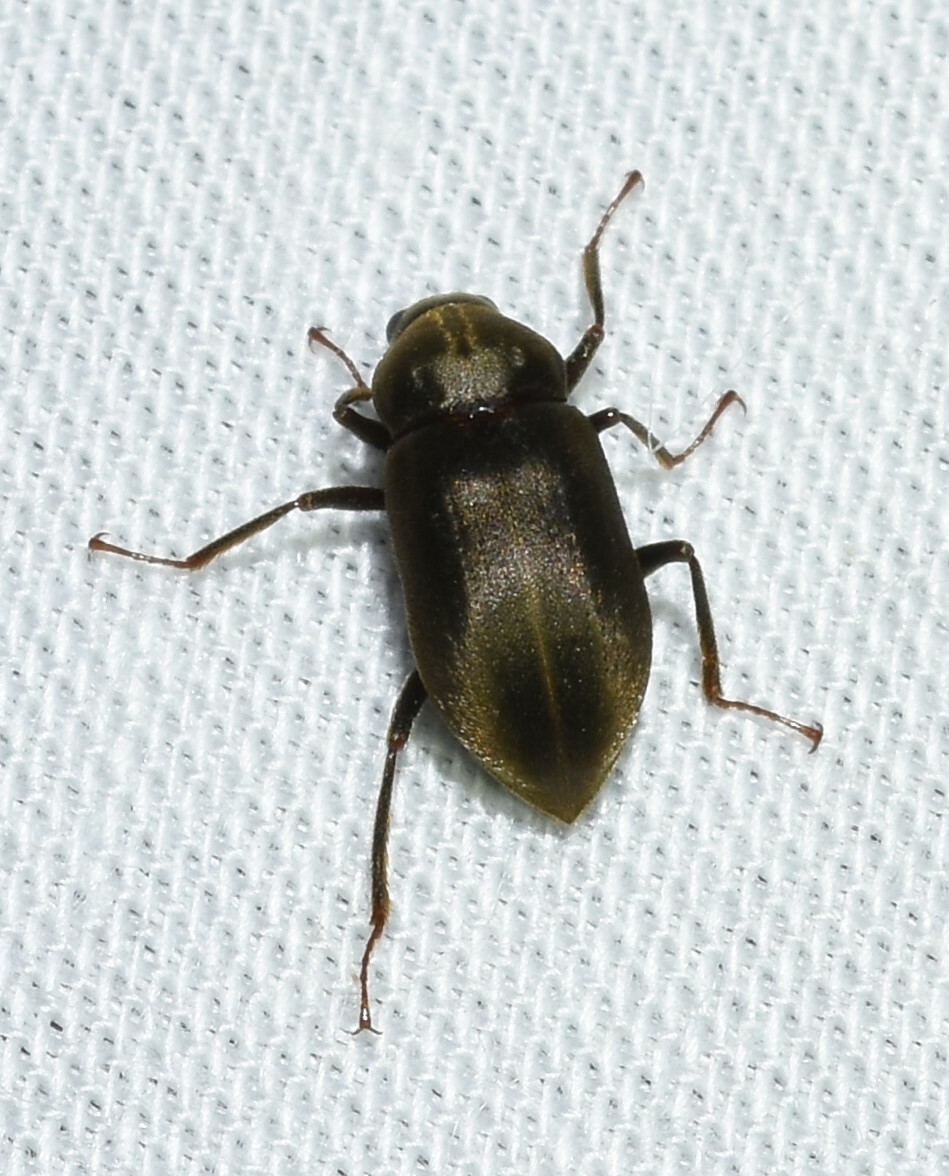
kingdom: Animalia
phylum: Arthropoda
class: Insecta
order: Coleoptera
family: Dryopidae
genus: Helichus
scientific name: Helichus lithophilus
